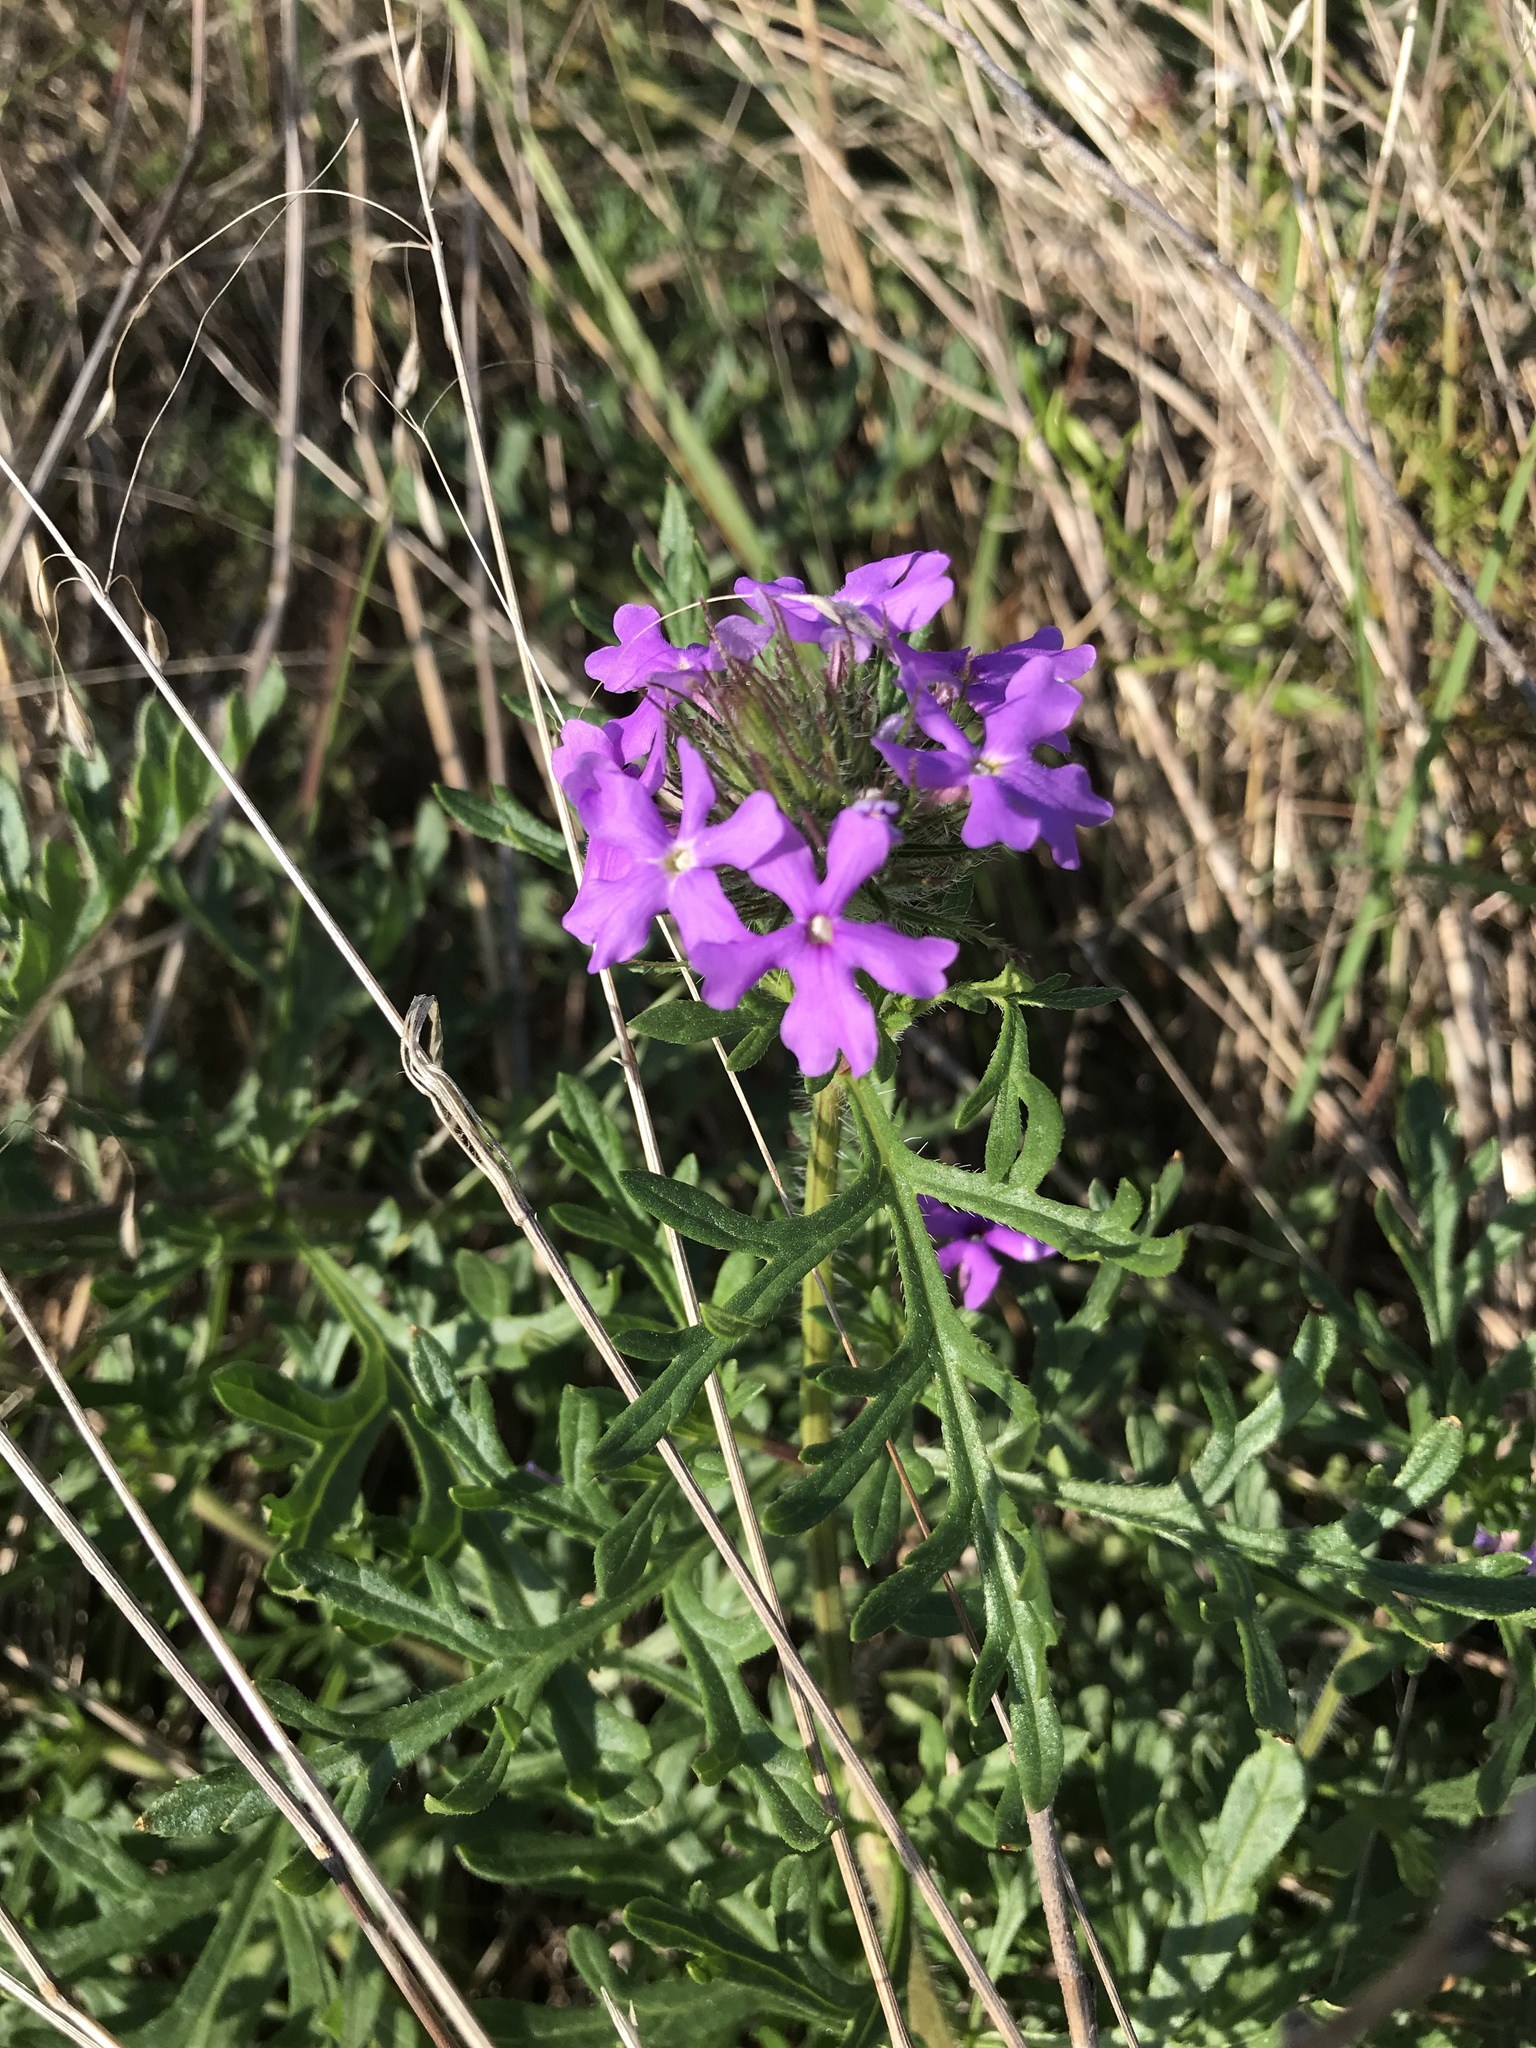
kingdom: Plantae
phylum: Tracheophyta
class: Magnoliopsida
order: Lamiales
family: Verbenaceae
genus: Verbena
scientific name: Verbena bipinnatifida
